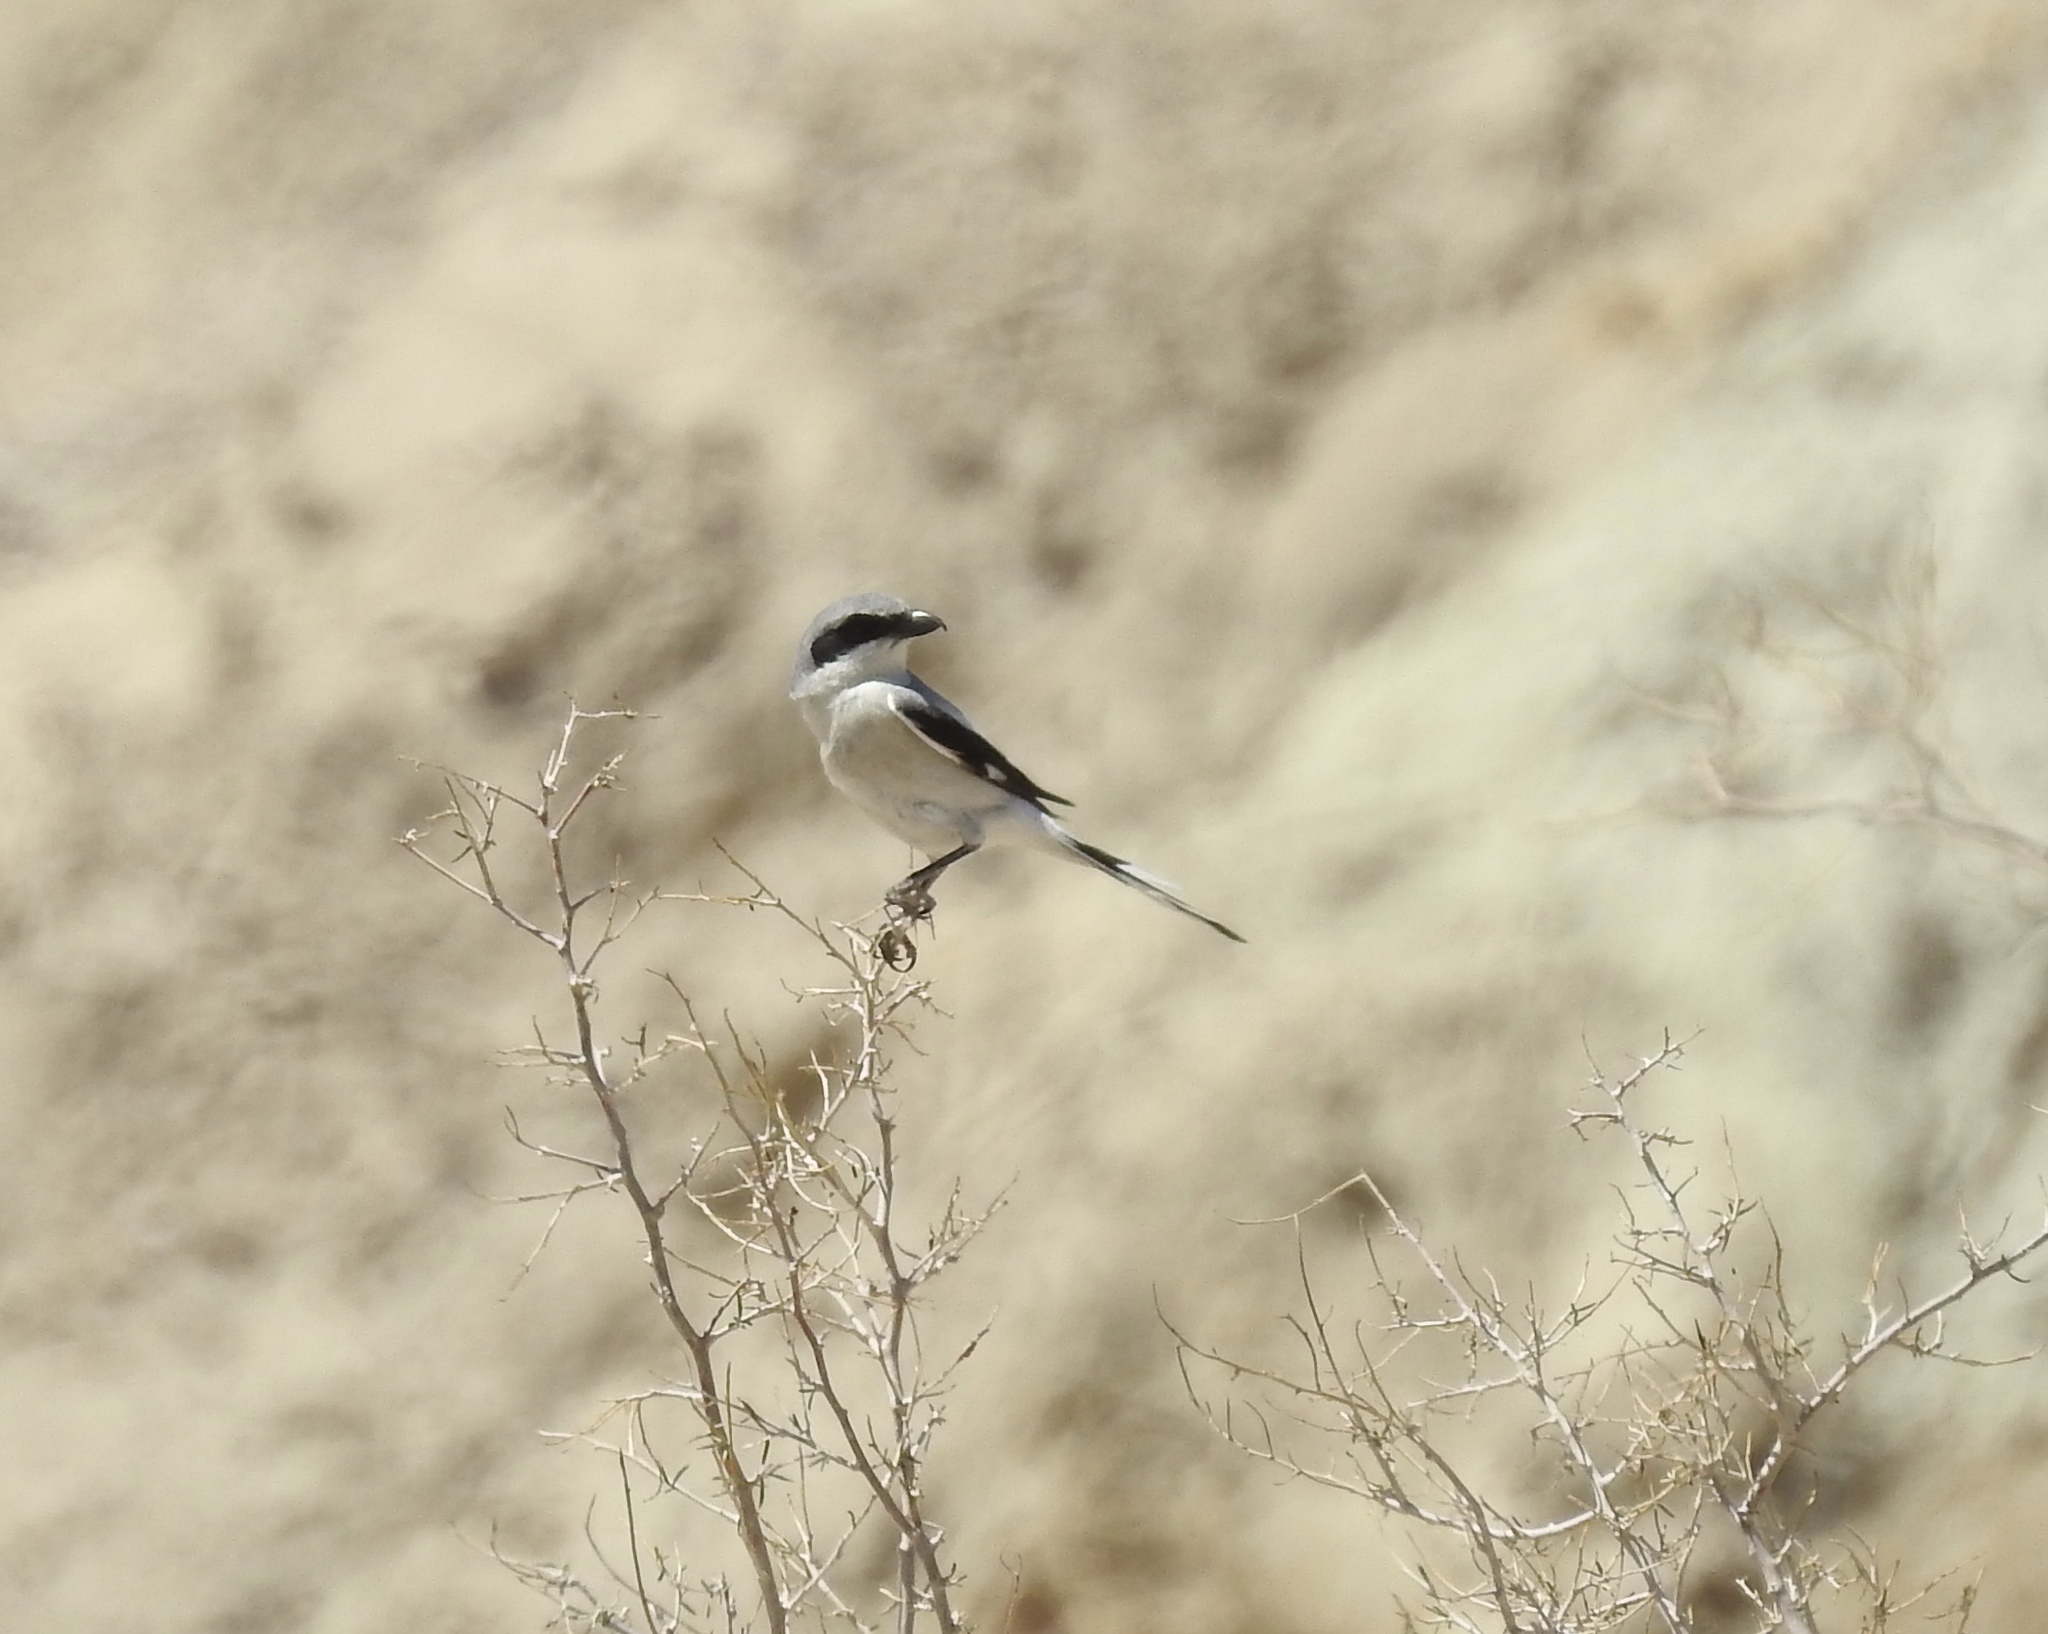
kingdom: Animalia
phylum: Chordata
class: Aves
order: Passeriformes
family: Laniidae
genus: Lanius
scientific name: Lanius ludovicianus
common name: Loggerhead shrike
